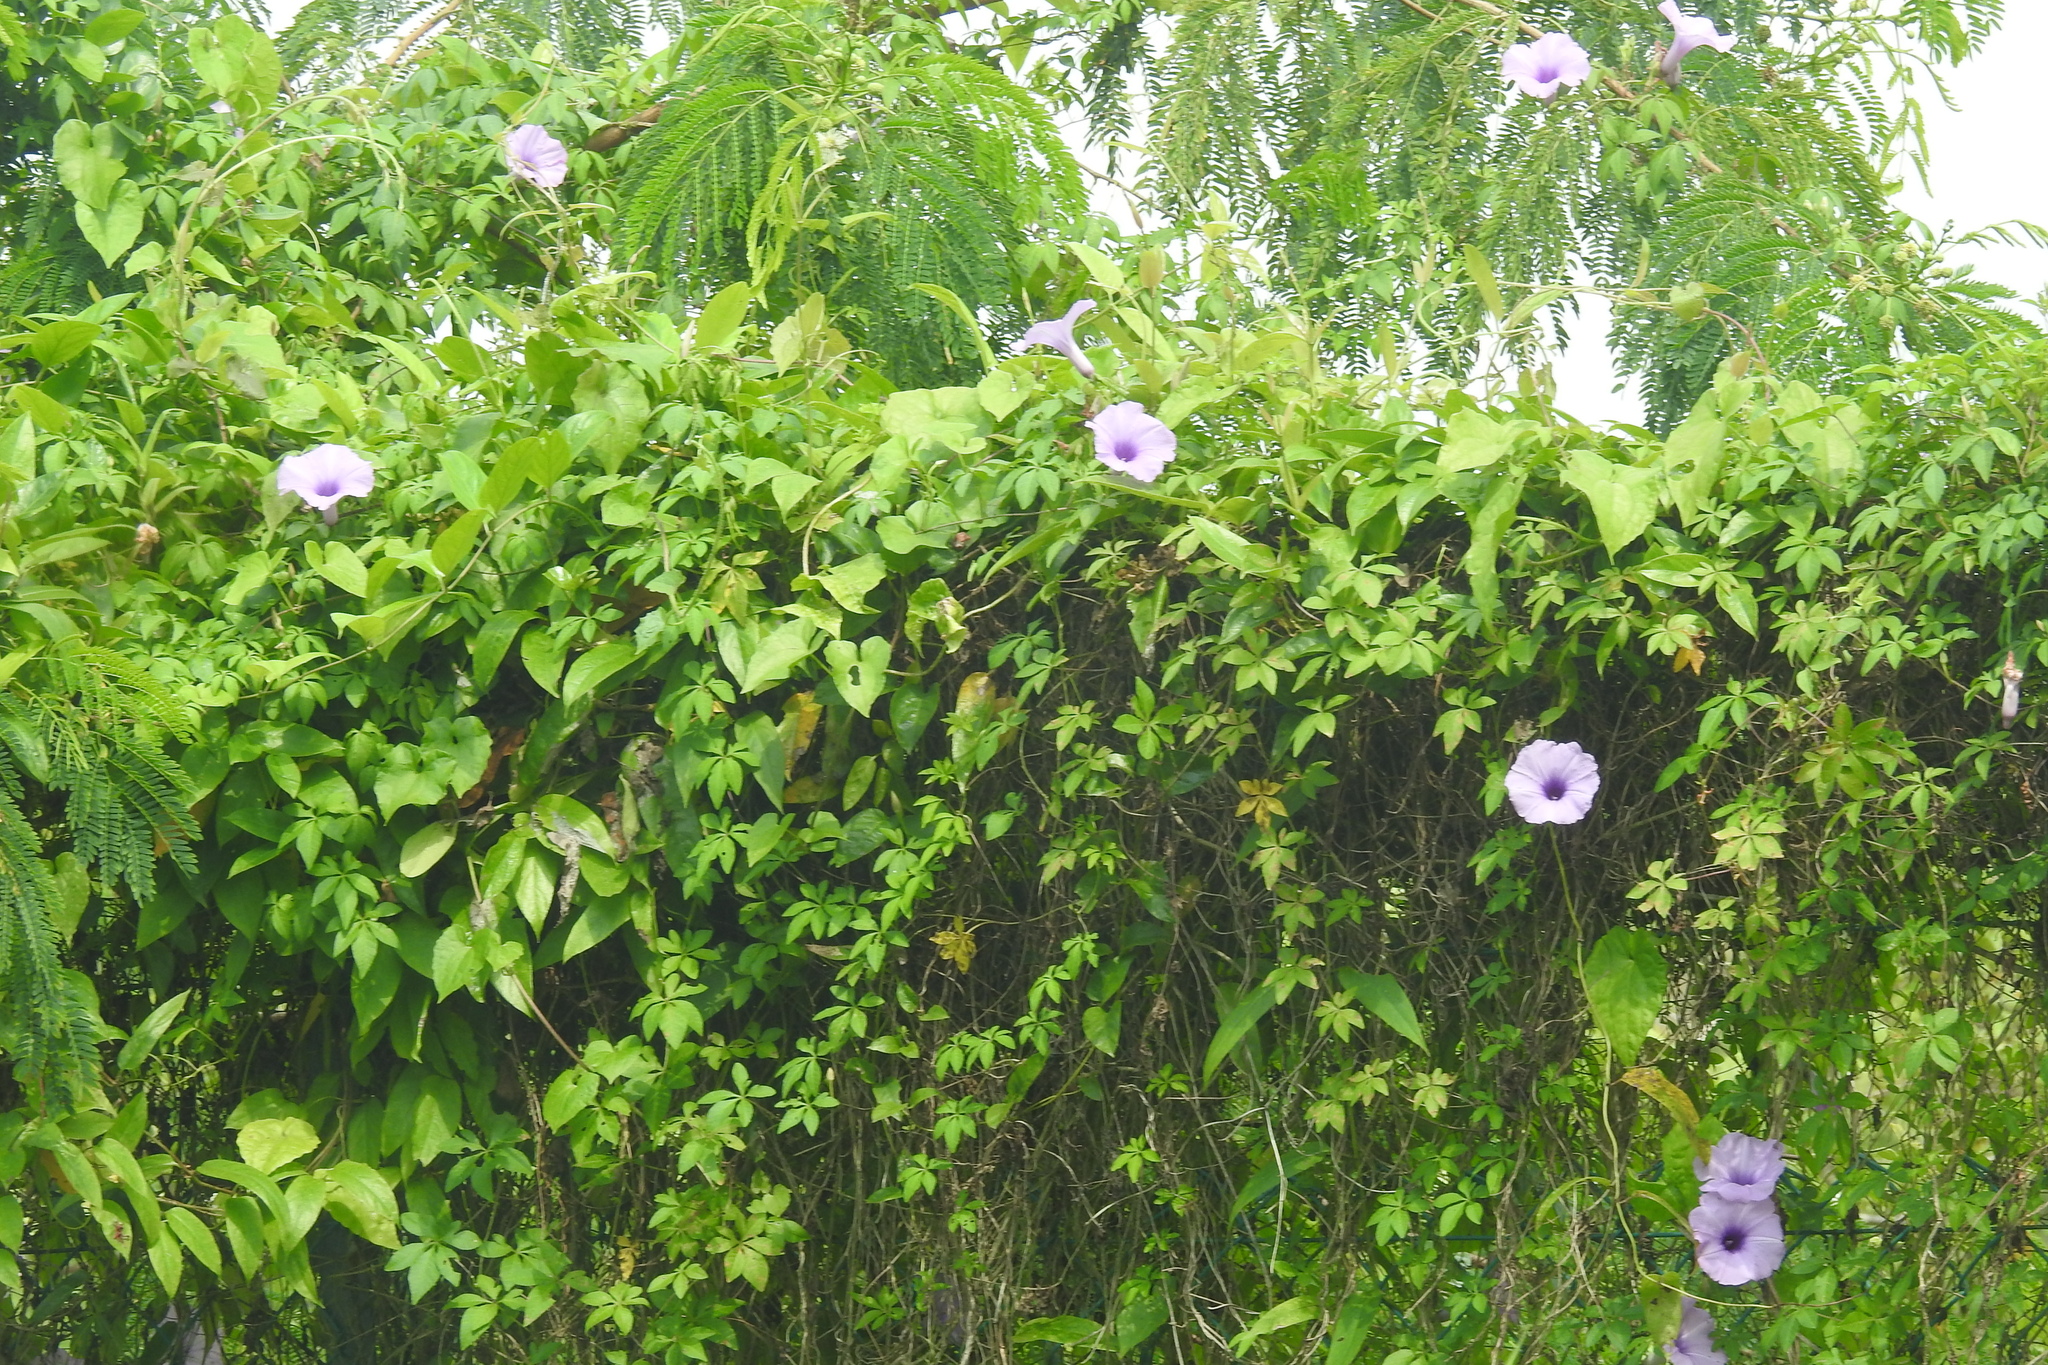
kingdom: Plantae
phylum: Tracheophyta
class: Magnoliopsida
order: Solanales
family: Convolvulaceae
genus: Ipomoea
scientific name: Ipomoea cairica
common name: Mile a minute vine
